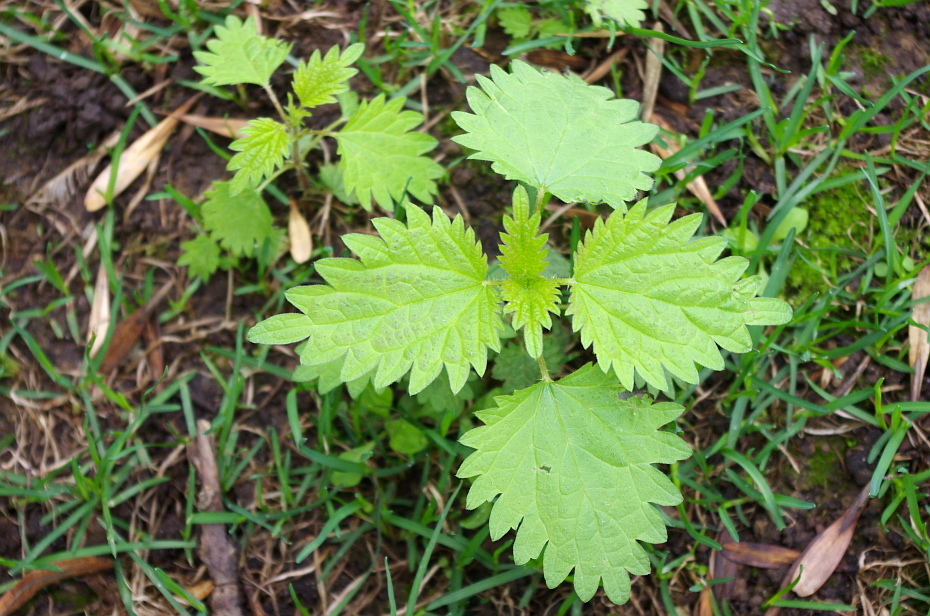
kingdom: Plantae
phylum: Tracheophyta
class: Magnoliopsida
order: Rosales
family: Urticaceae
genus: Urtica
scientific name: Urtica dioica
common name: Common nettle
